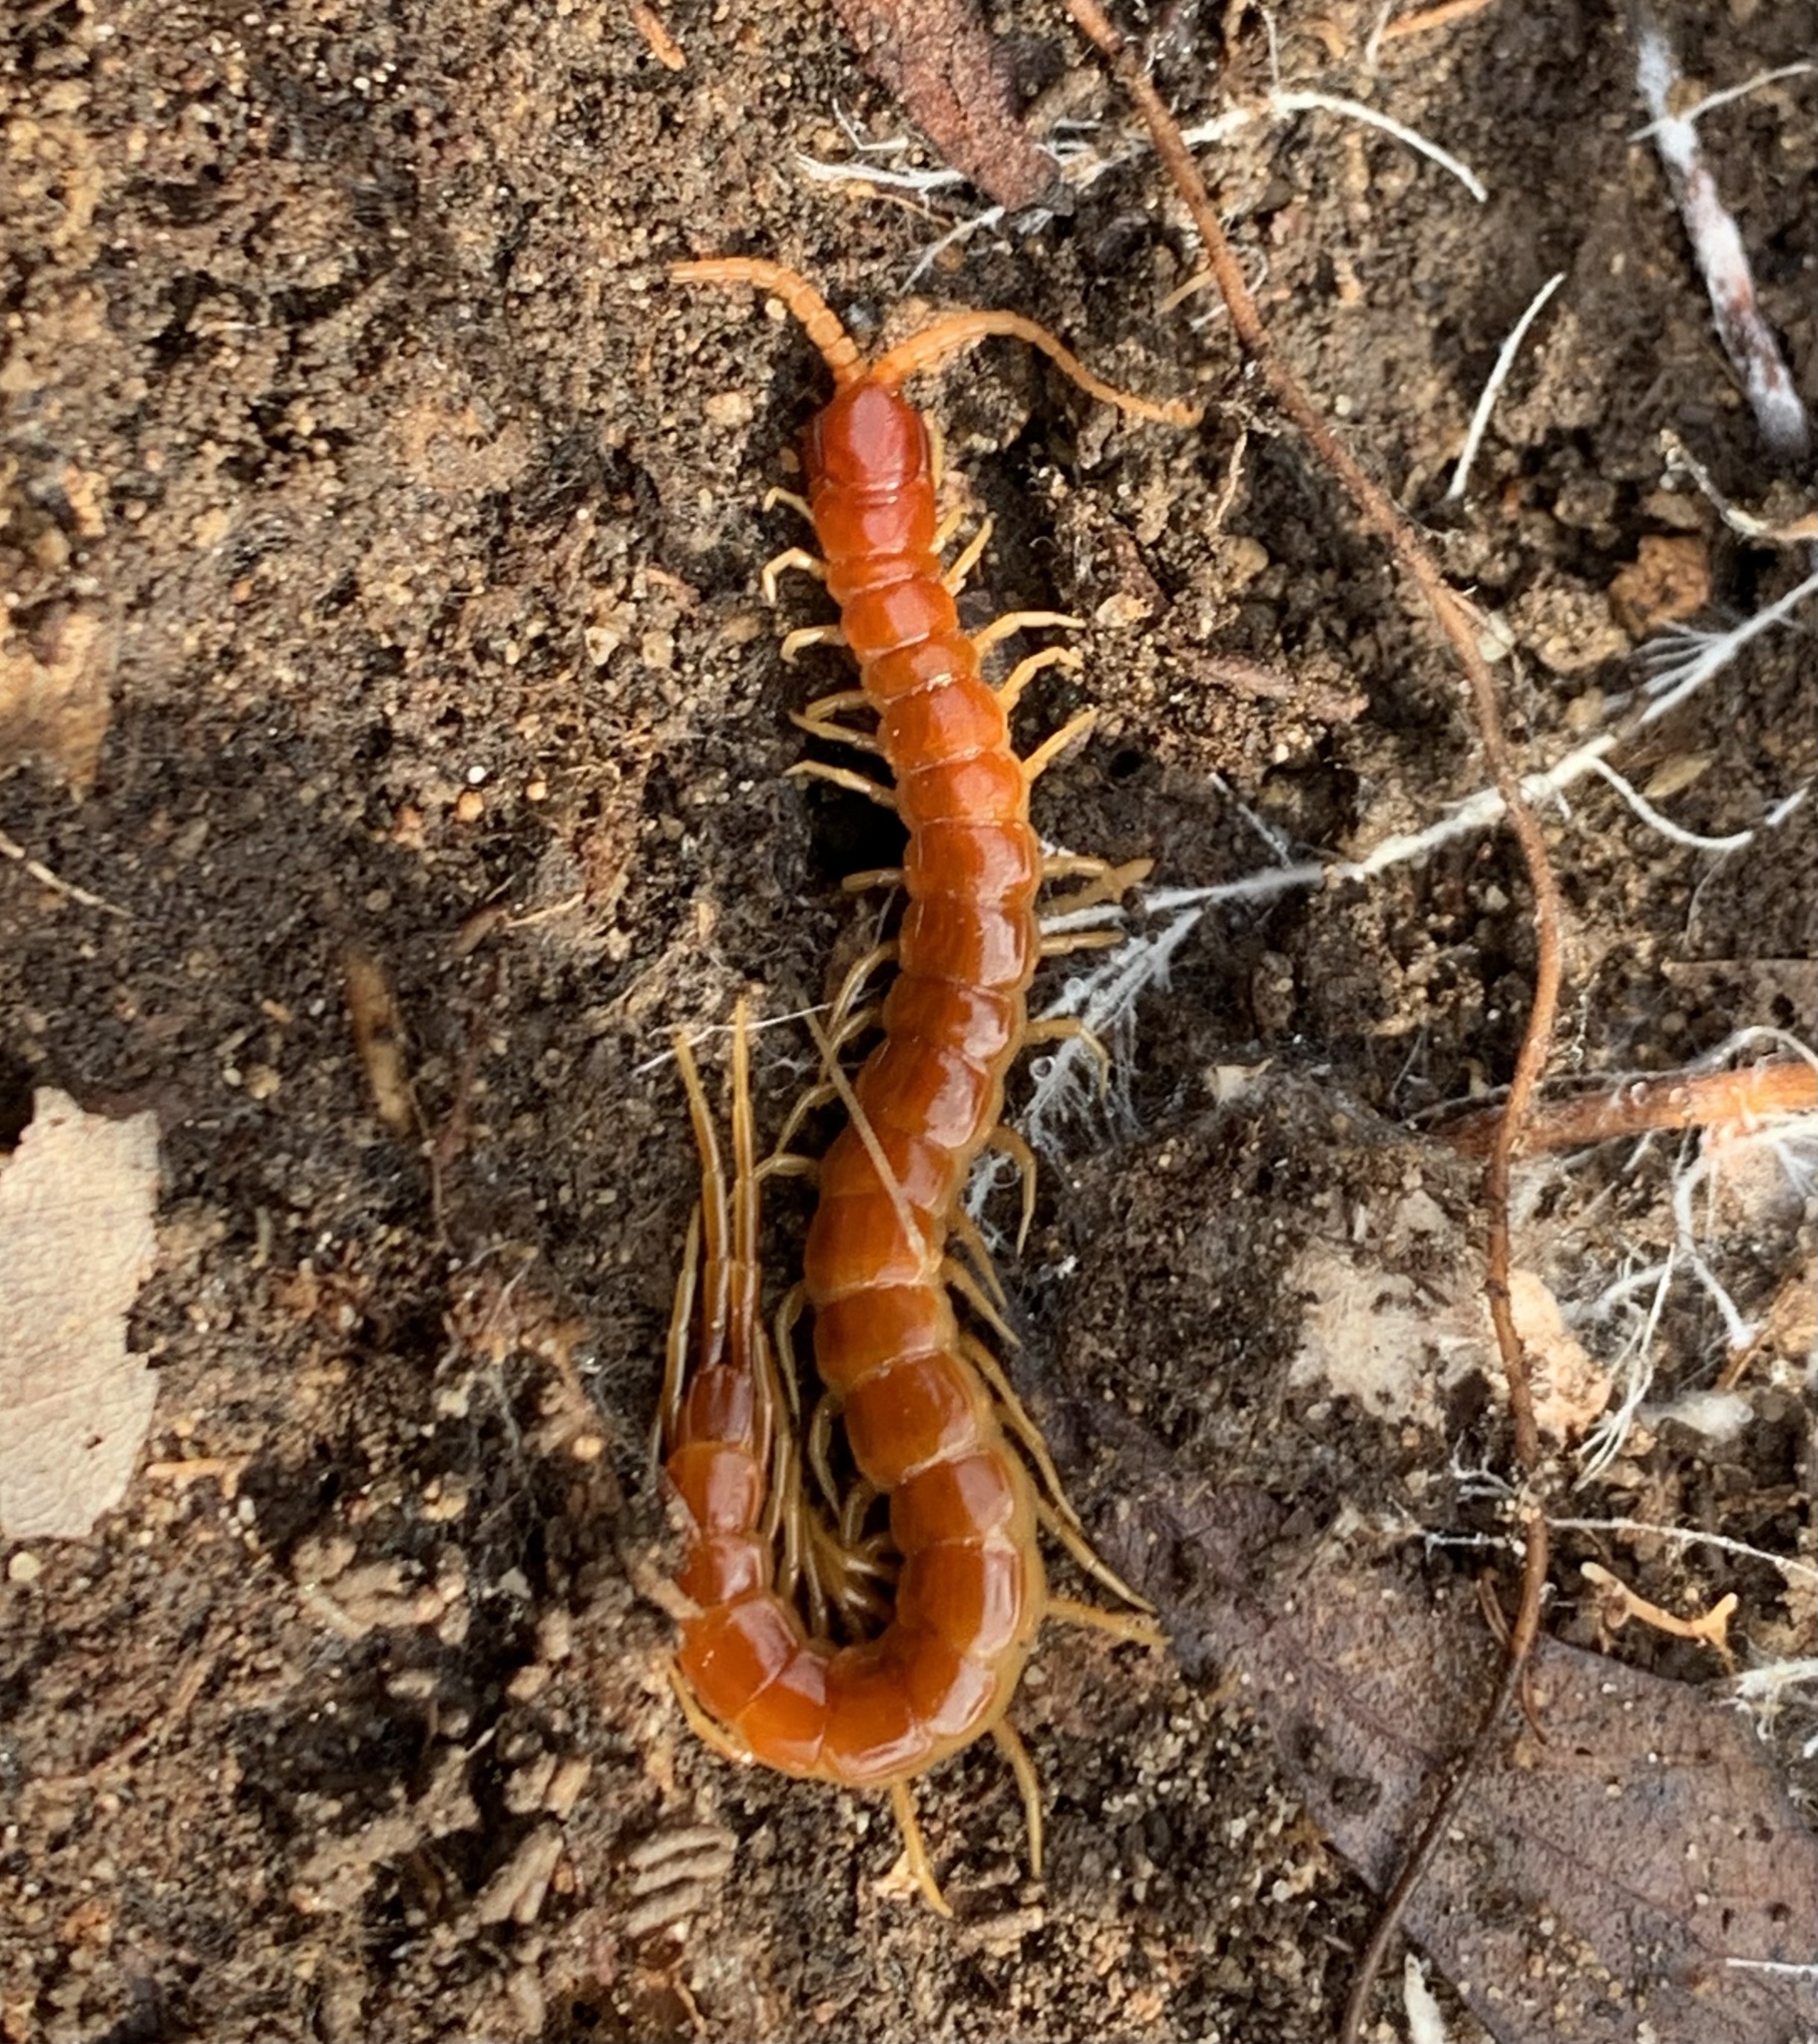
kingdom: Animalia
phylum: Arthropoda
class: Chilopoda
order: Scolopendromorpha
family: Scolopocryptopidae
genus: Scolopocryptops
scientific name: Scolopocryptops sexspinosus
